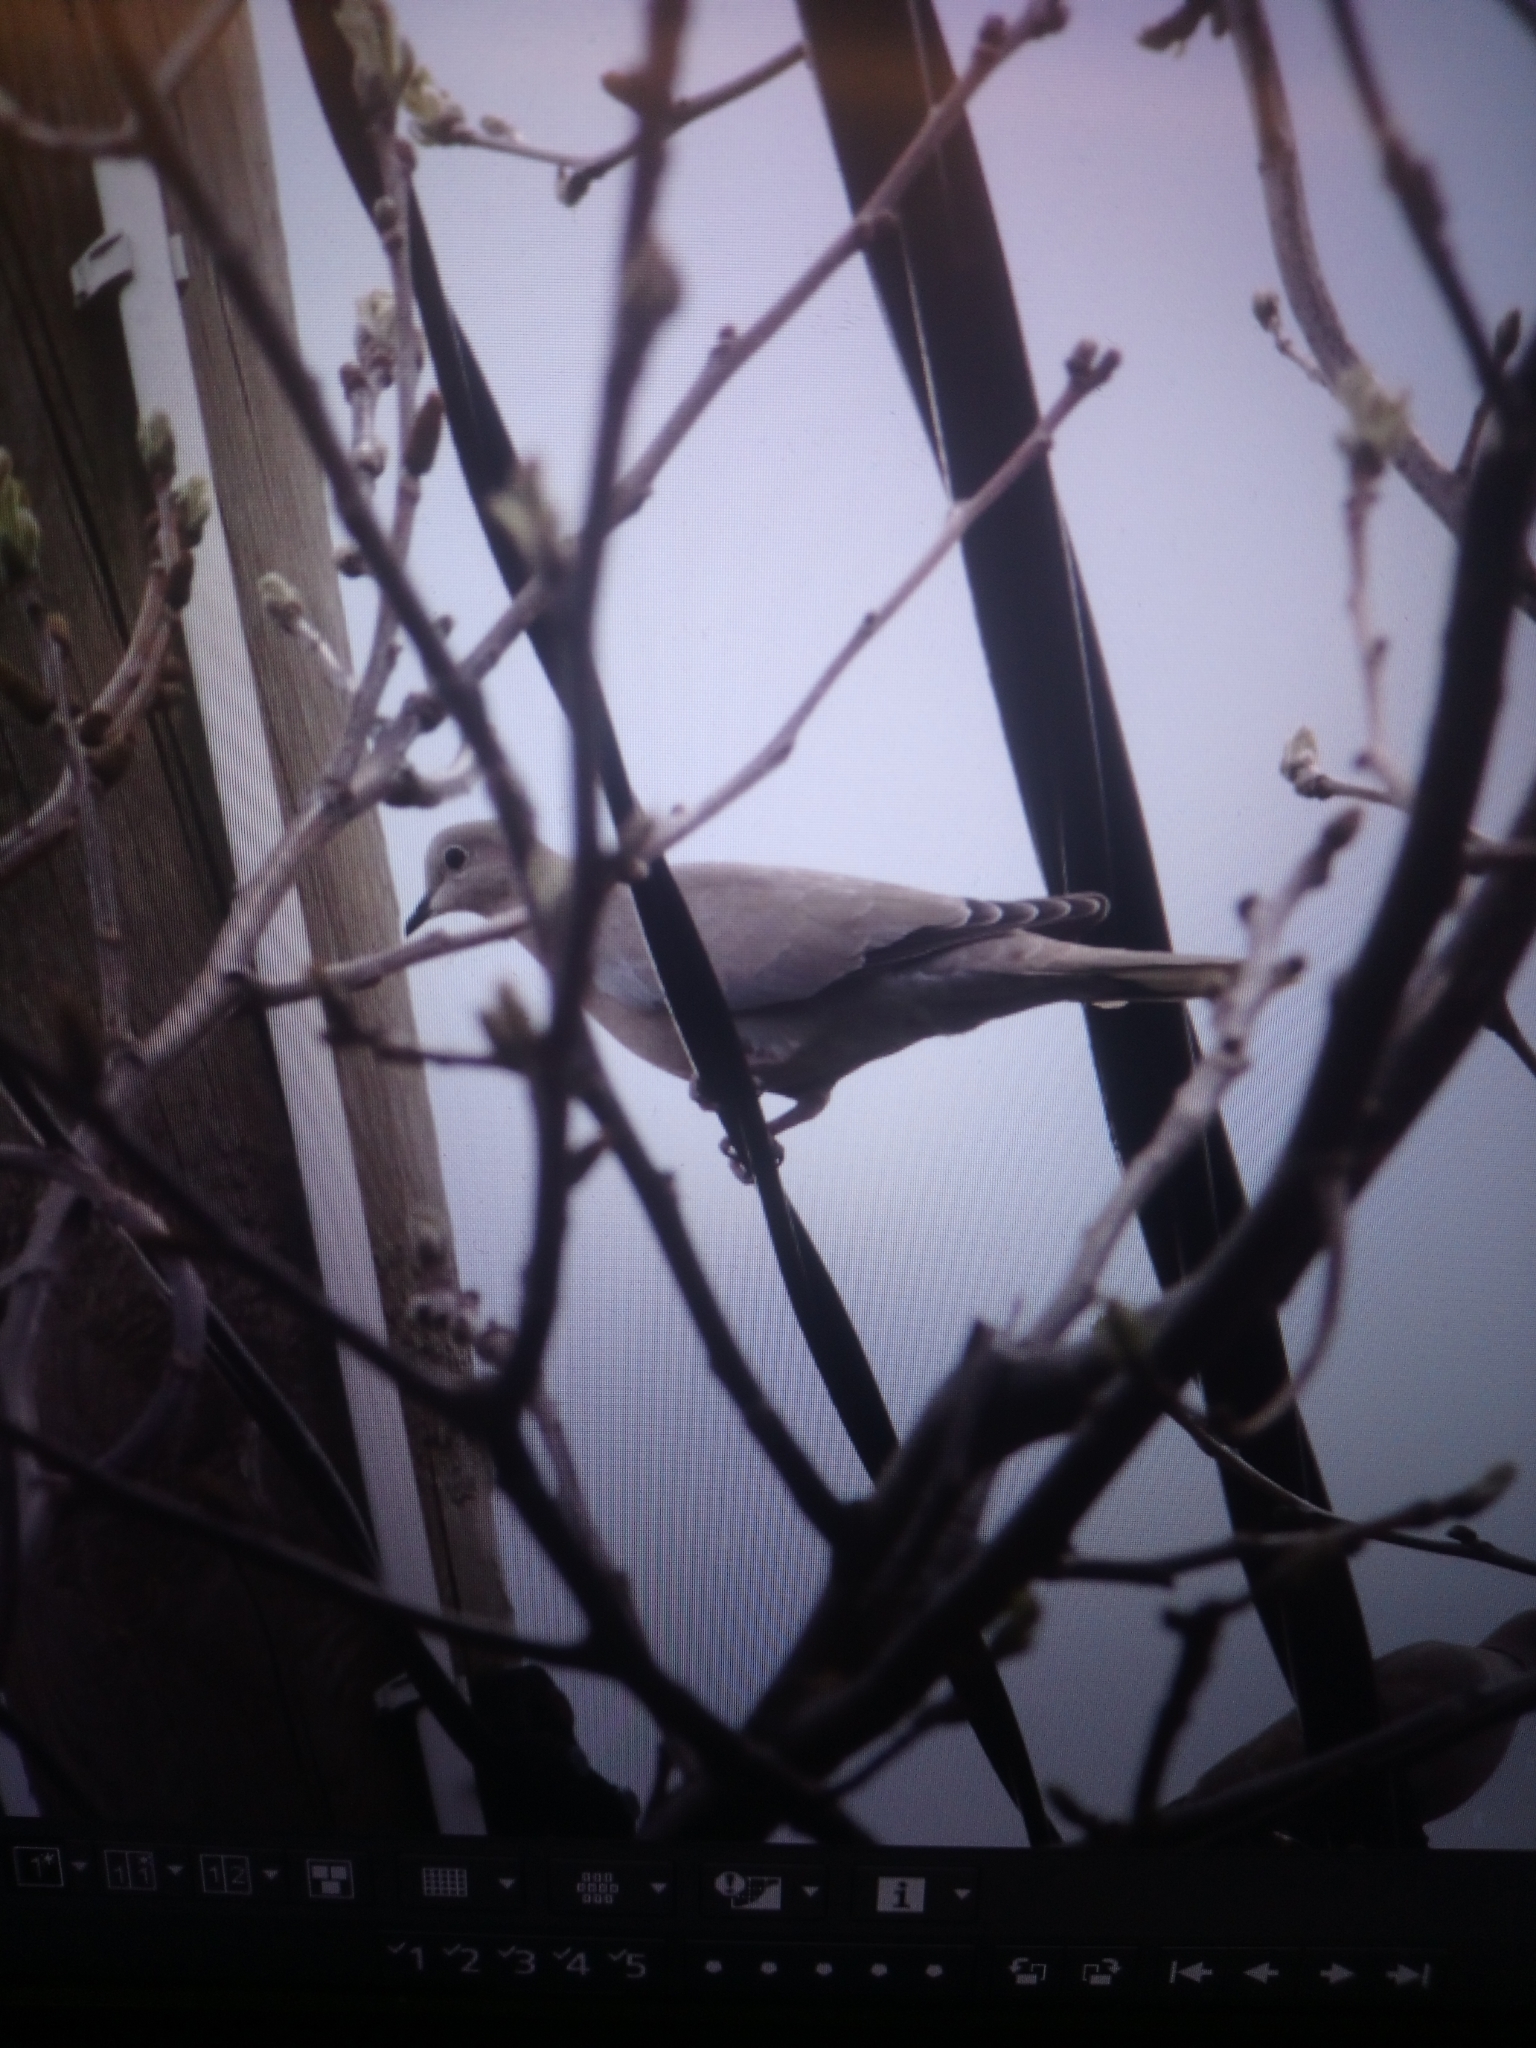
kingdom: Animalia
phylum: Chordata
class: Aves
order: Columbiformes
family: Columbidae
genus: Streptopelia
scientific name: Streptopelia decaocto
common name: Eurasian collared dove
